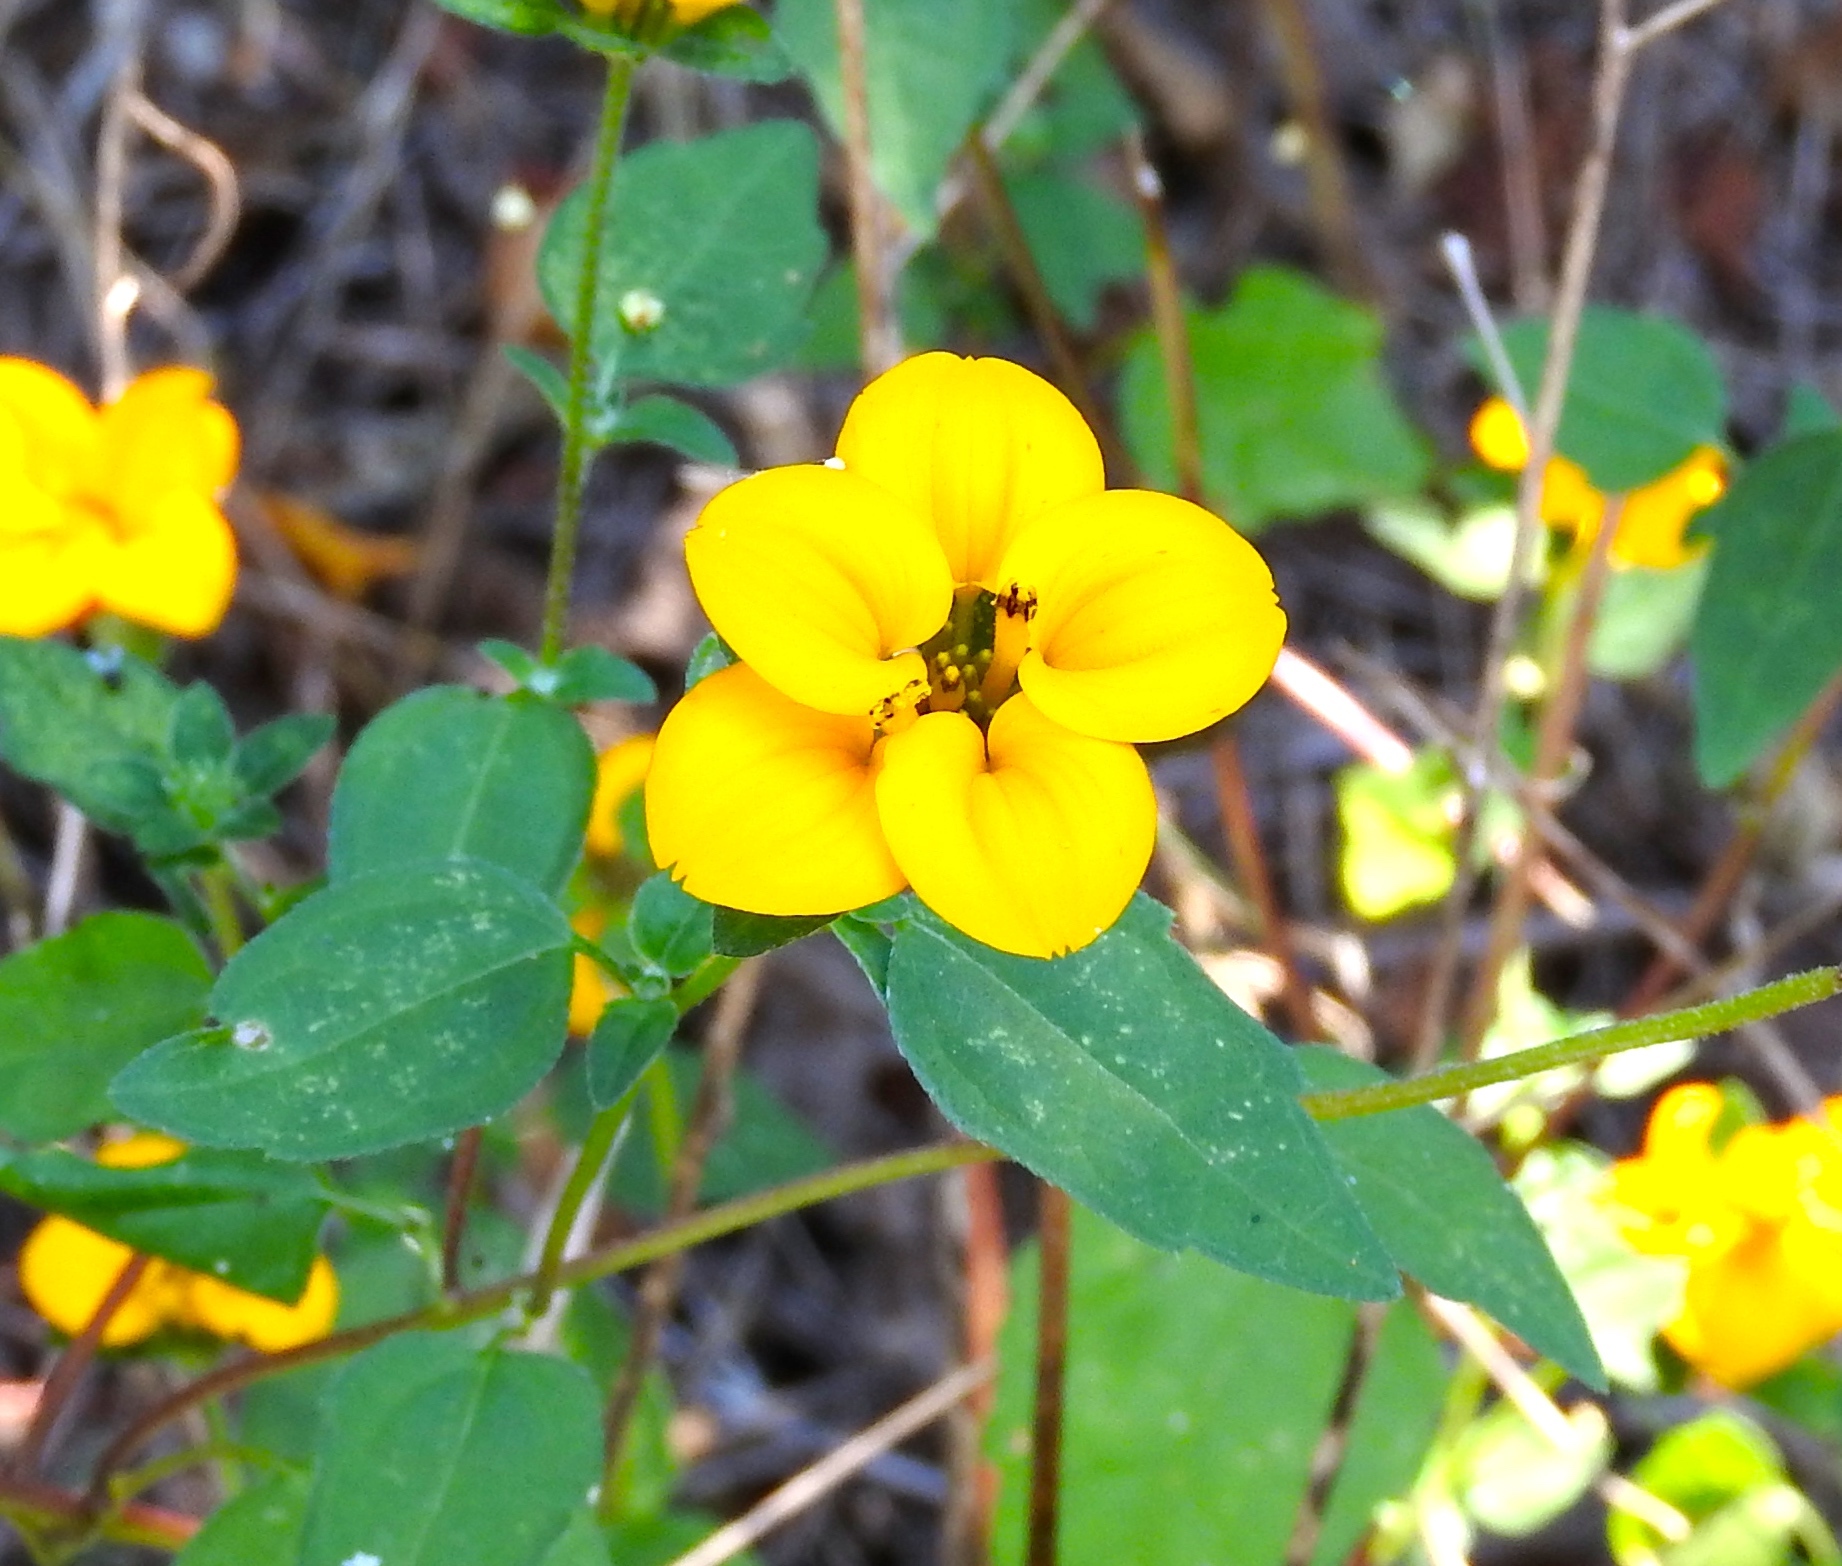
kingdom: Plantae
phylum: Tracheophyta
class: Magnoliopsida
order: Asterales
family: Asteraceae
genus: Sclerocarpus
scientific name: Sclerocarpus divaricatus
